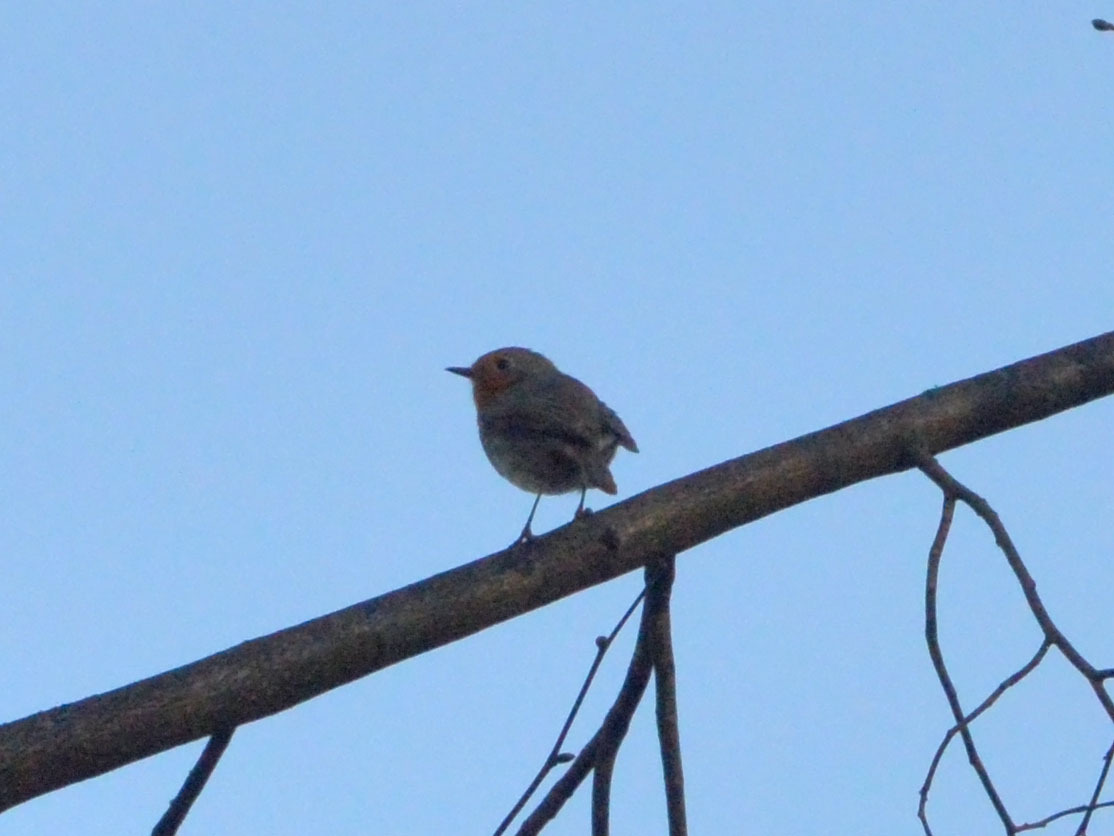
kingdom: Animalia
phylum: Chordata
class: Aves
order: Passeriformes
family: Muscicapidae
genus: Erithacus
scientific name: Erithacus rubecula
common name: European robin
